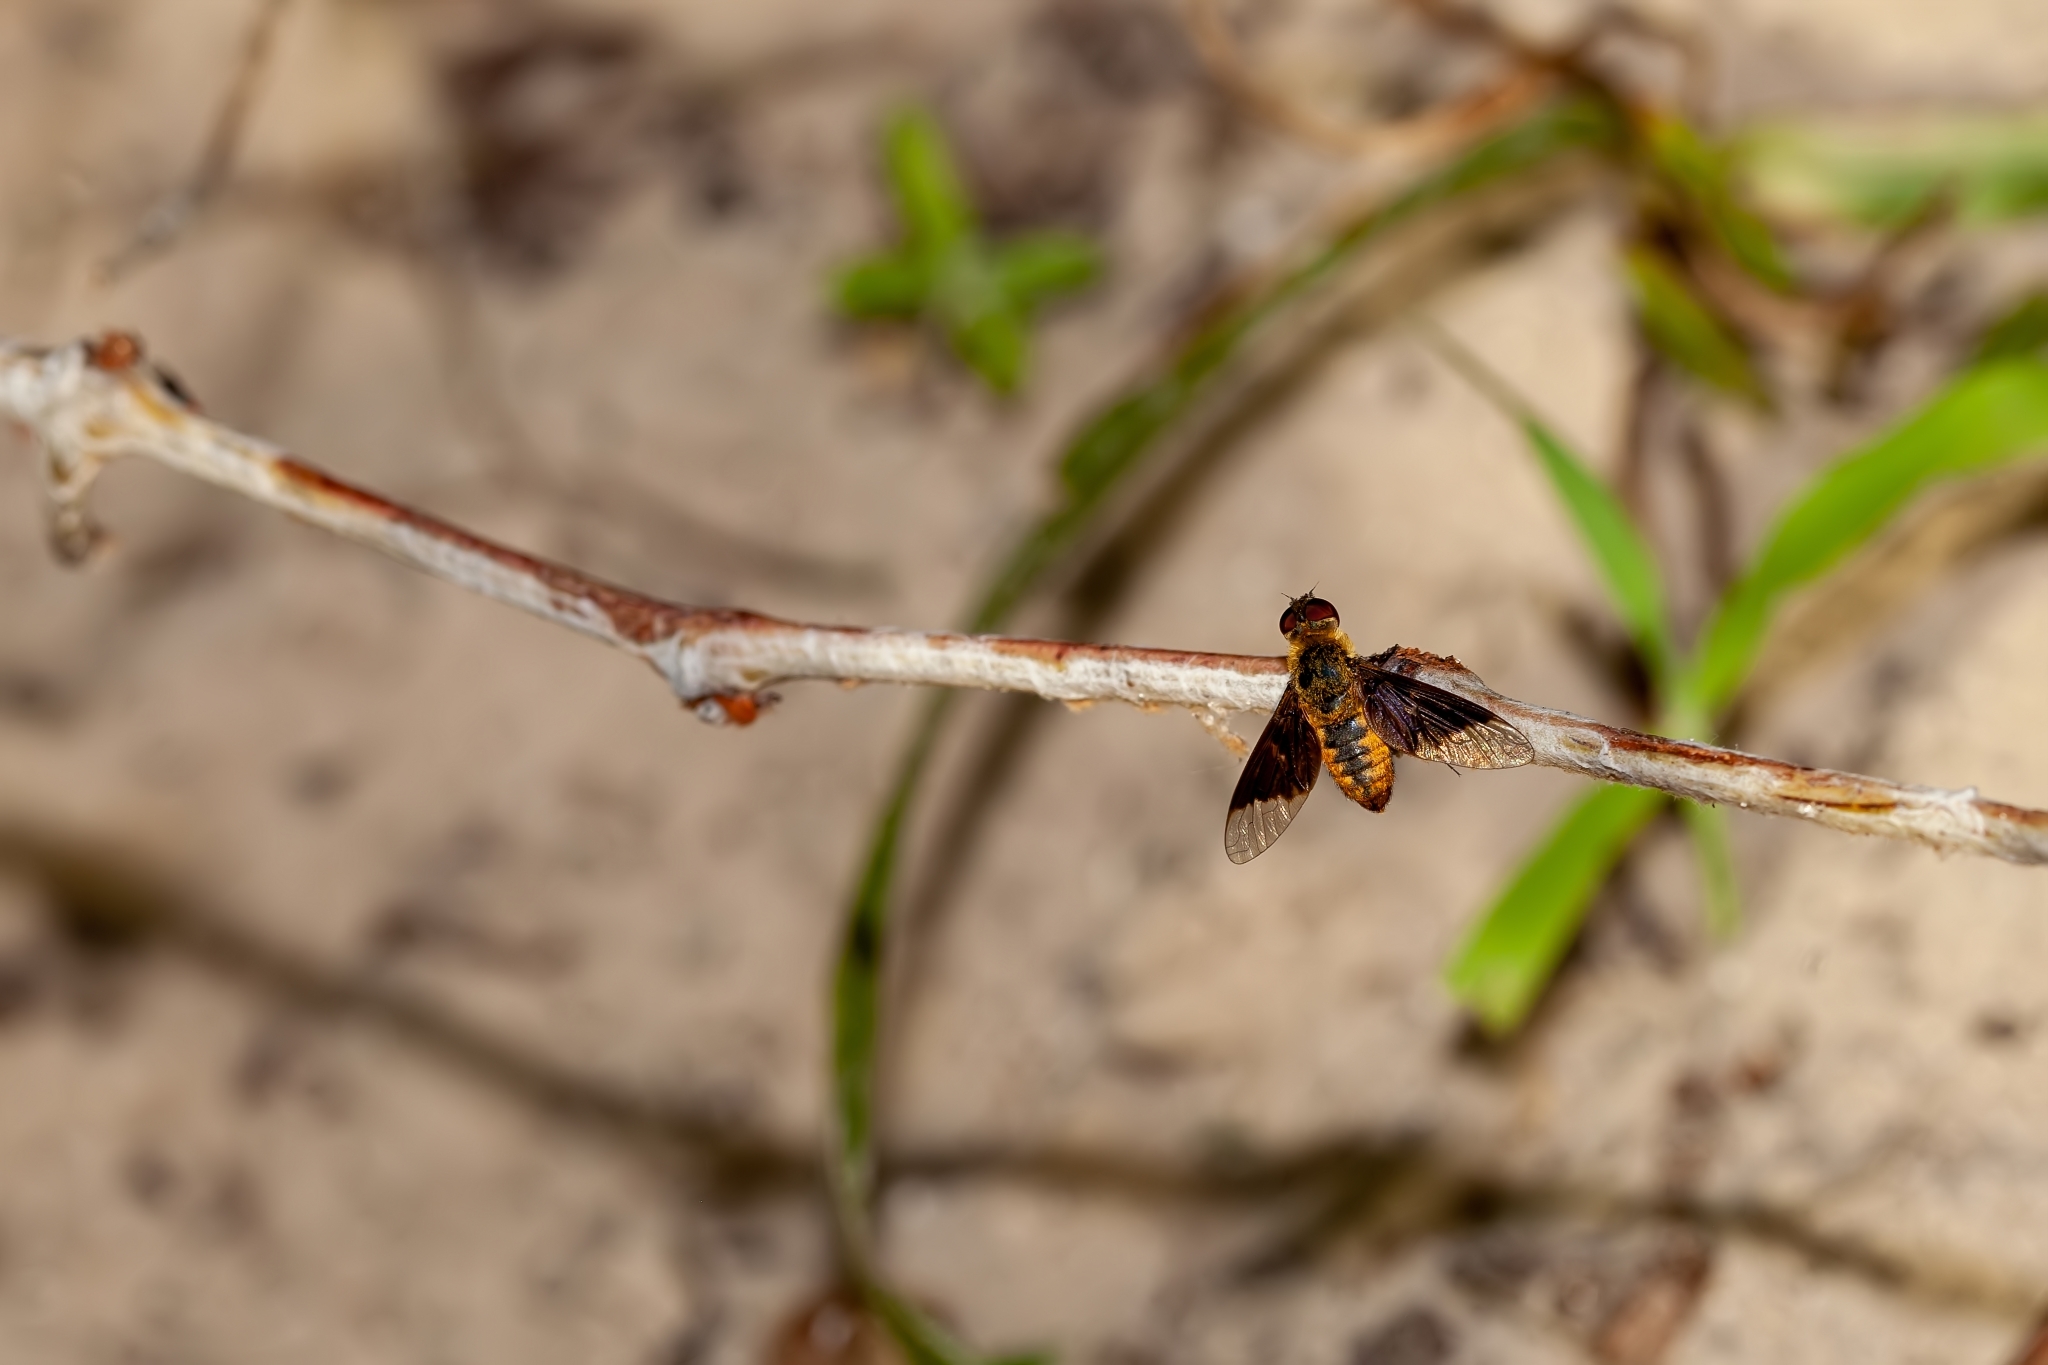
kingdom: Animalia
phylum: Arthropoda
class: Insecta
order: Diptera
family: Bombyliidae
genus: Chrysanthrax
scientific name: Chrysanthrax cypris
